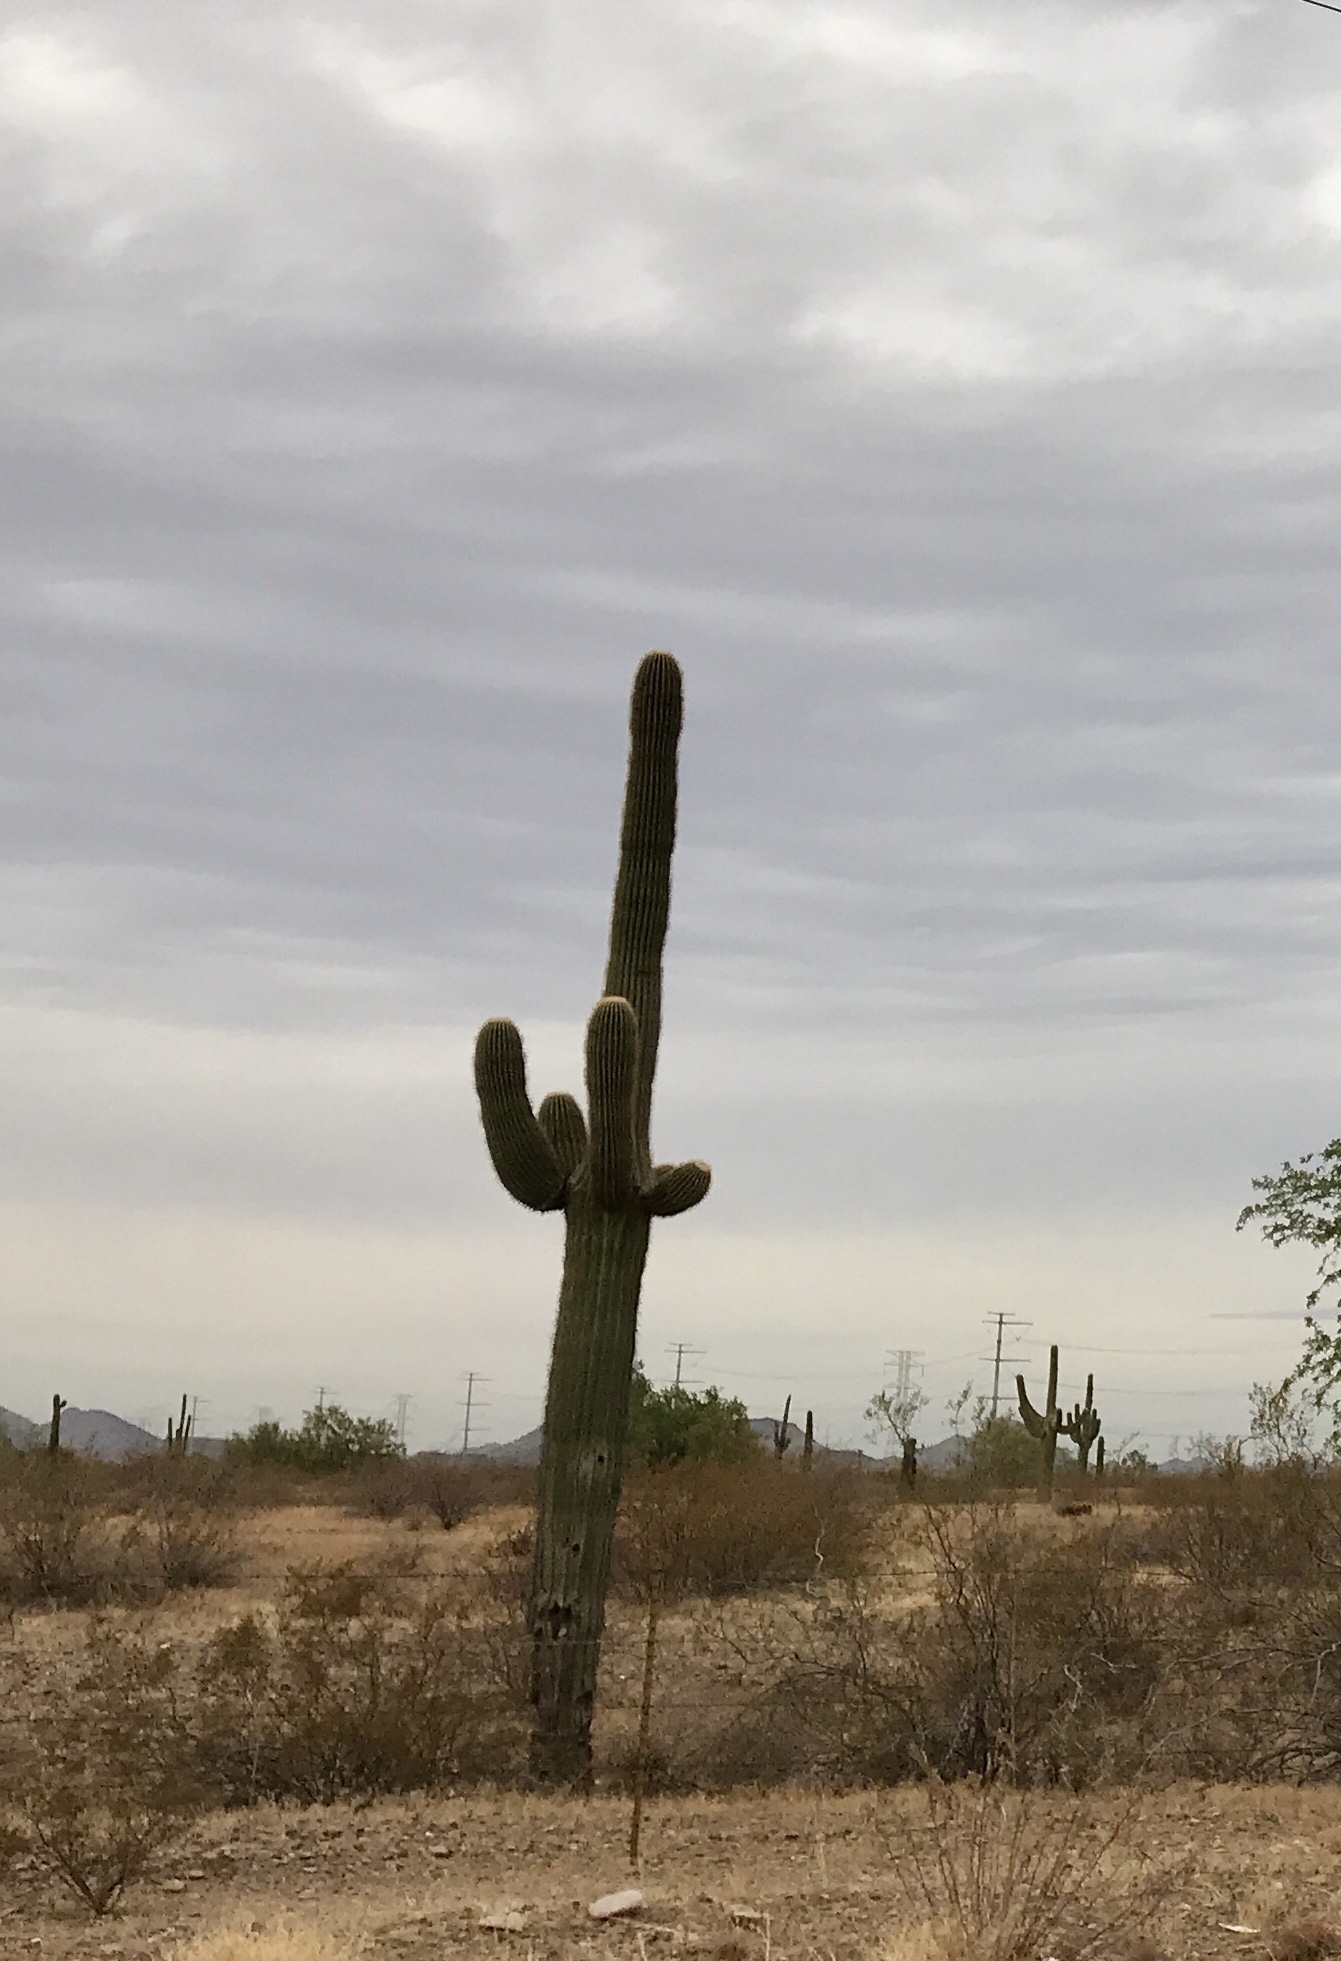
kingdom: Plantae
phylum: Tracheophyta
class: Magnoliopsida
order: Caryophyllales
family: Cactaceae
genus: Carnegiea
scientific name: Carnegiea gigantea
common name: Saguaro
